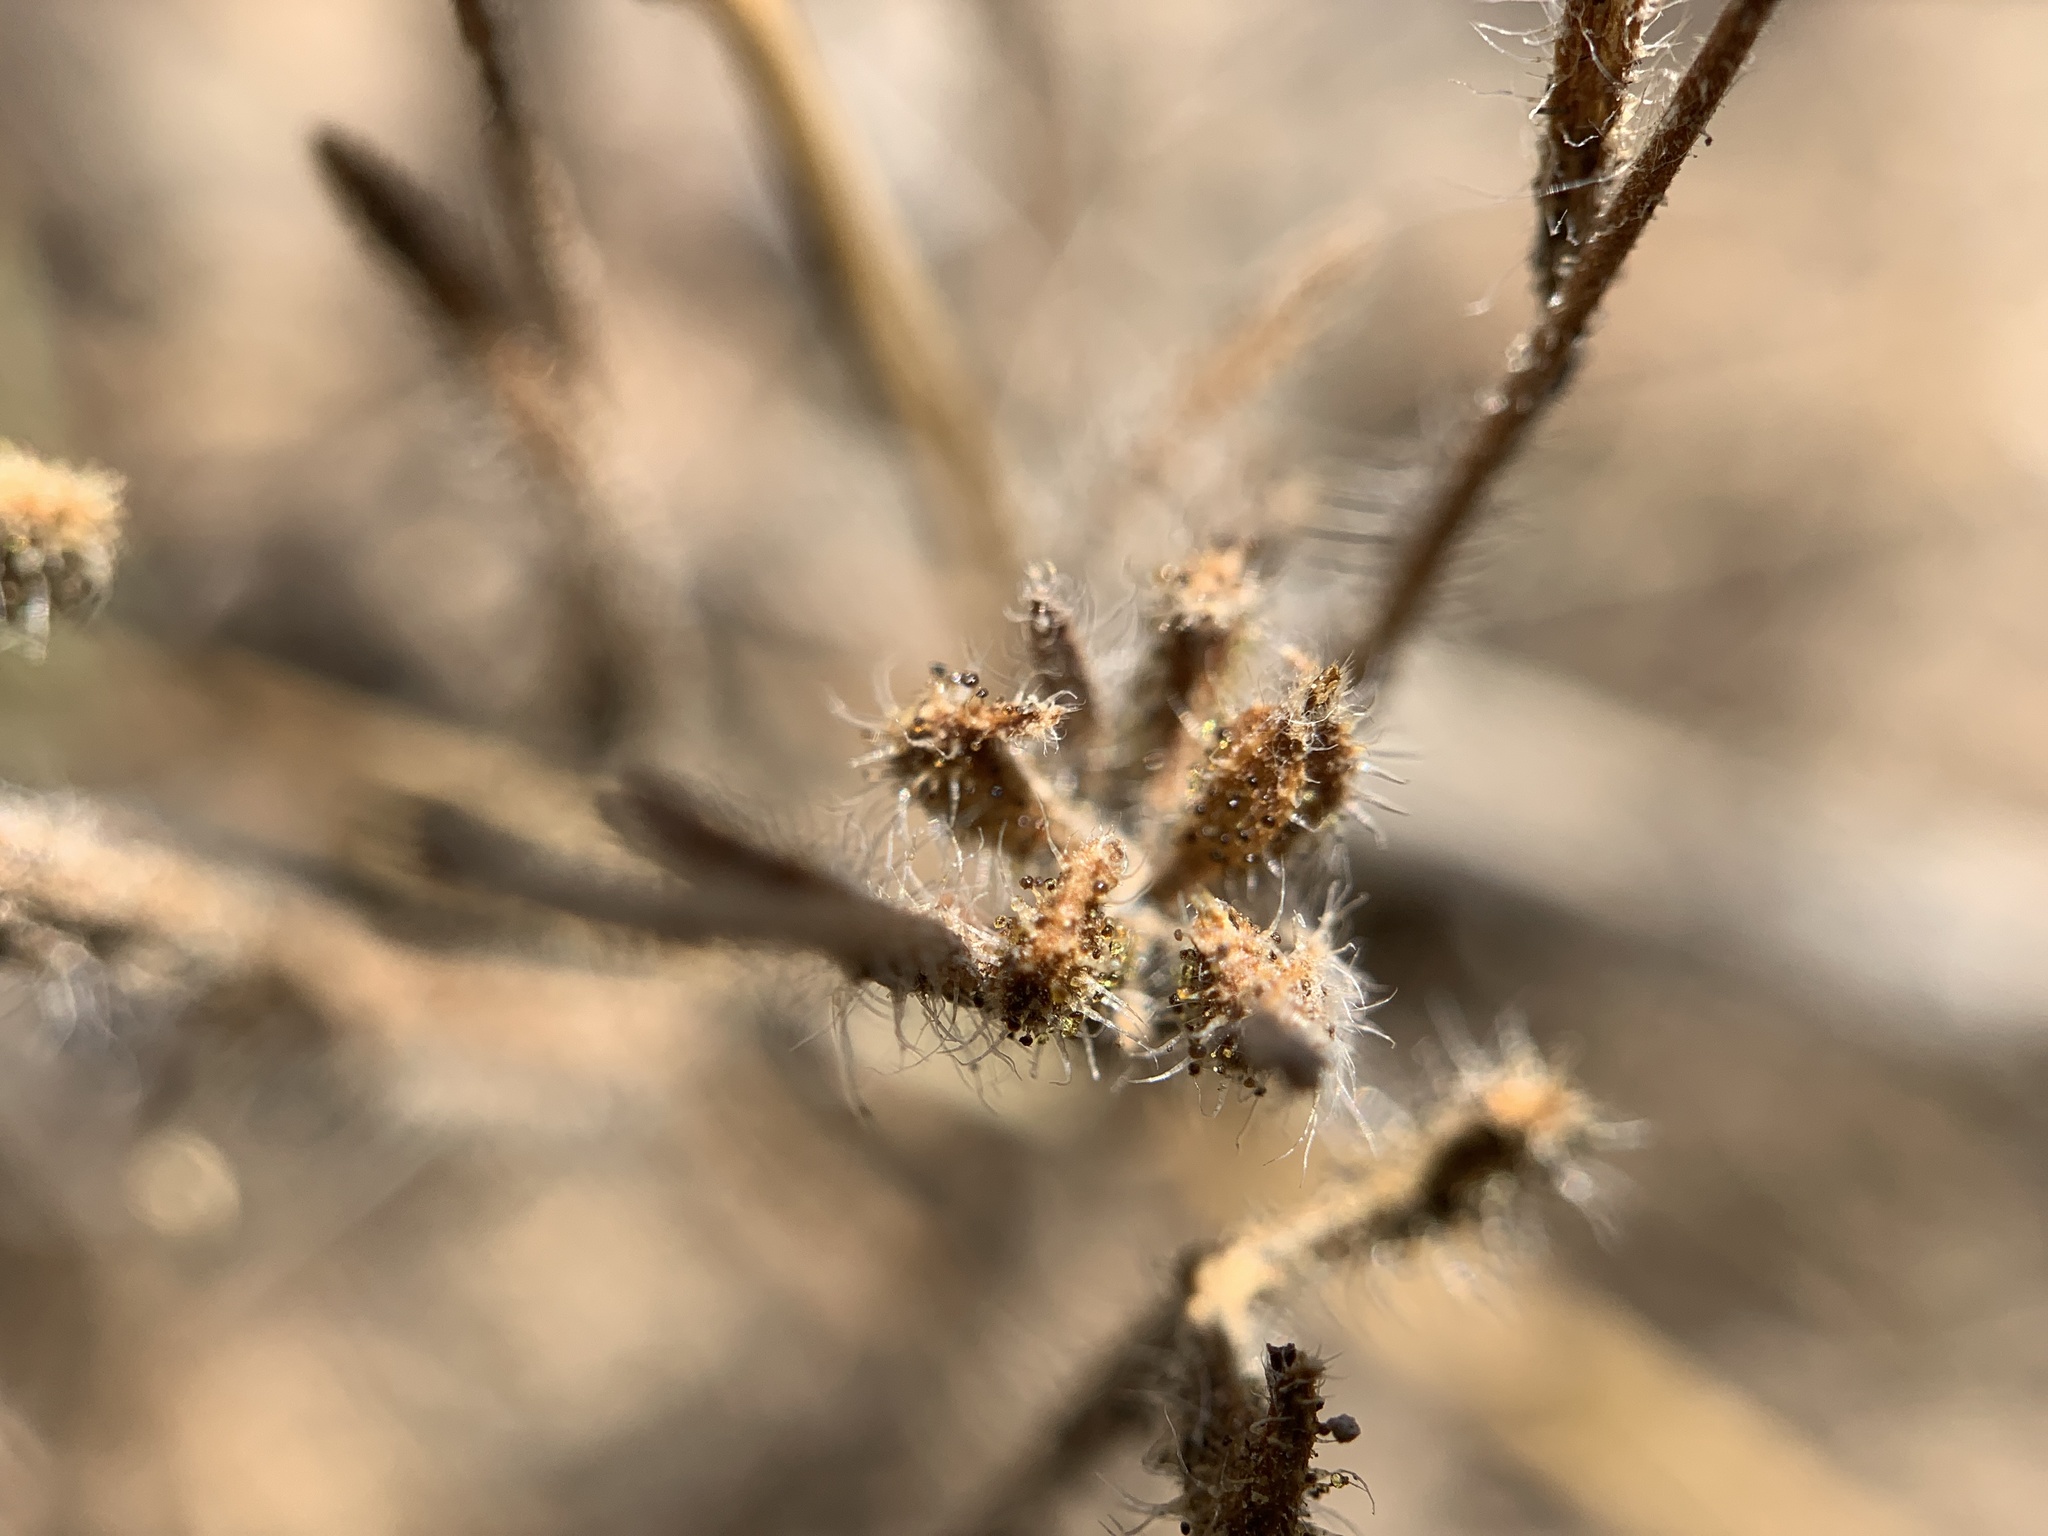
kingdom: Plantae
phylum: Tracheophyta
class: Magnoliopsida
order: Asterales
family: Asteraceae
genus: Madia
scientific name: Madia gracilis
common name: Grassy tarweed
